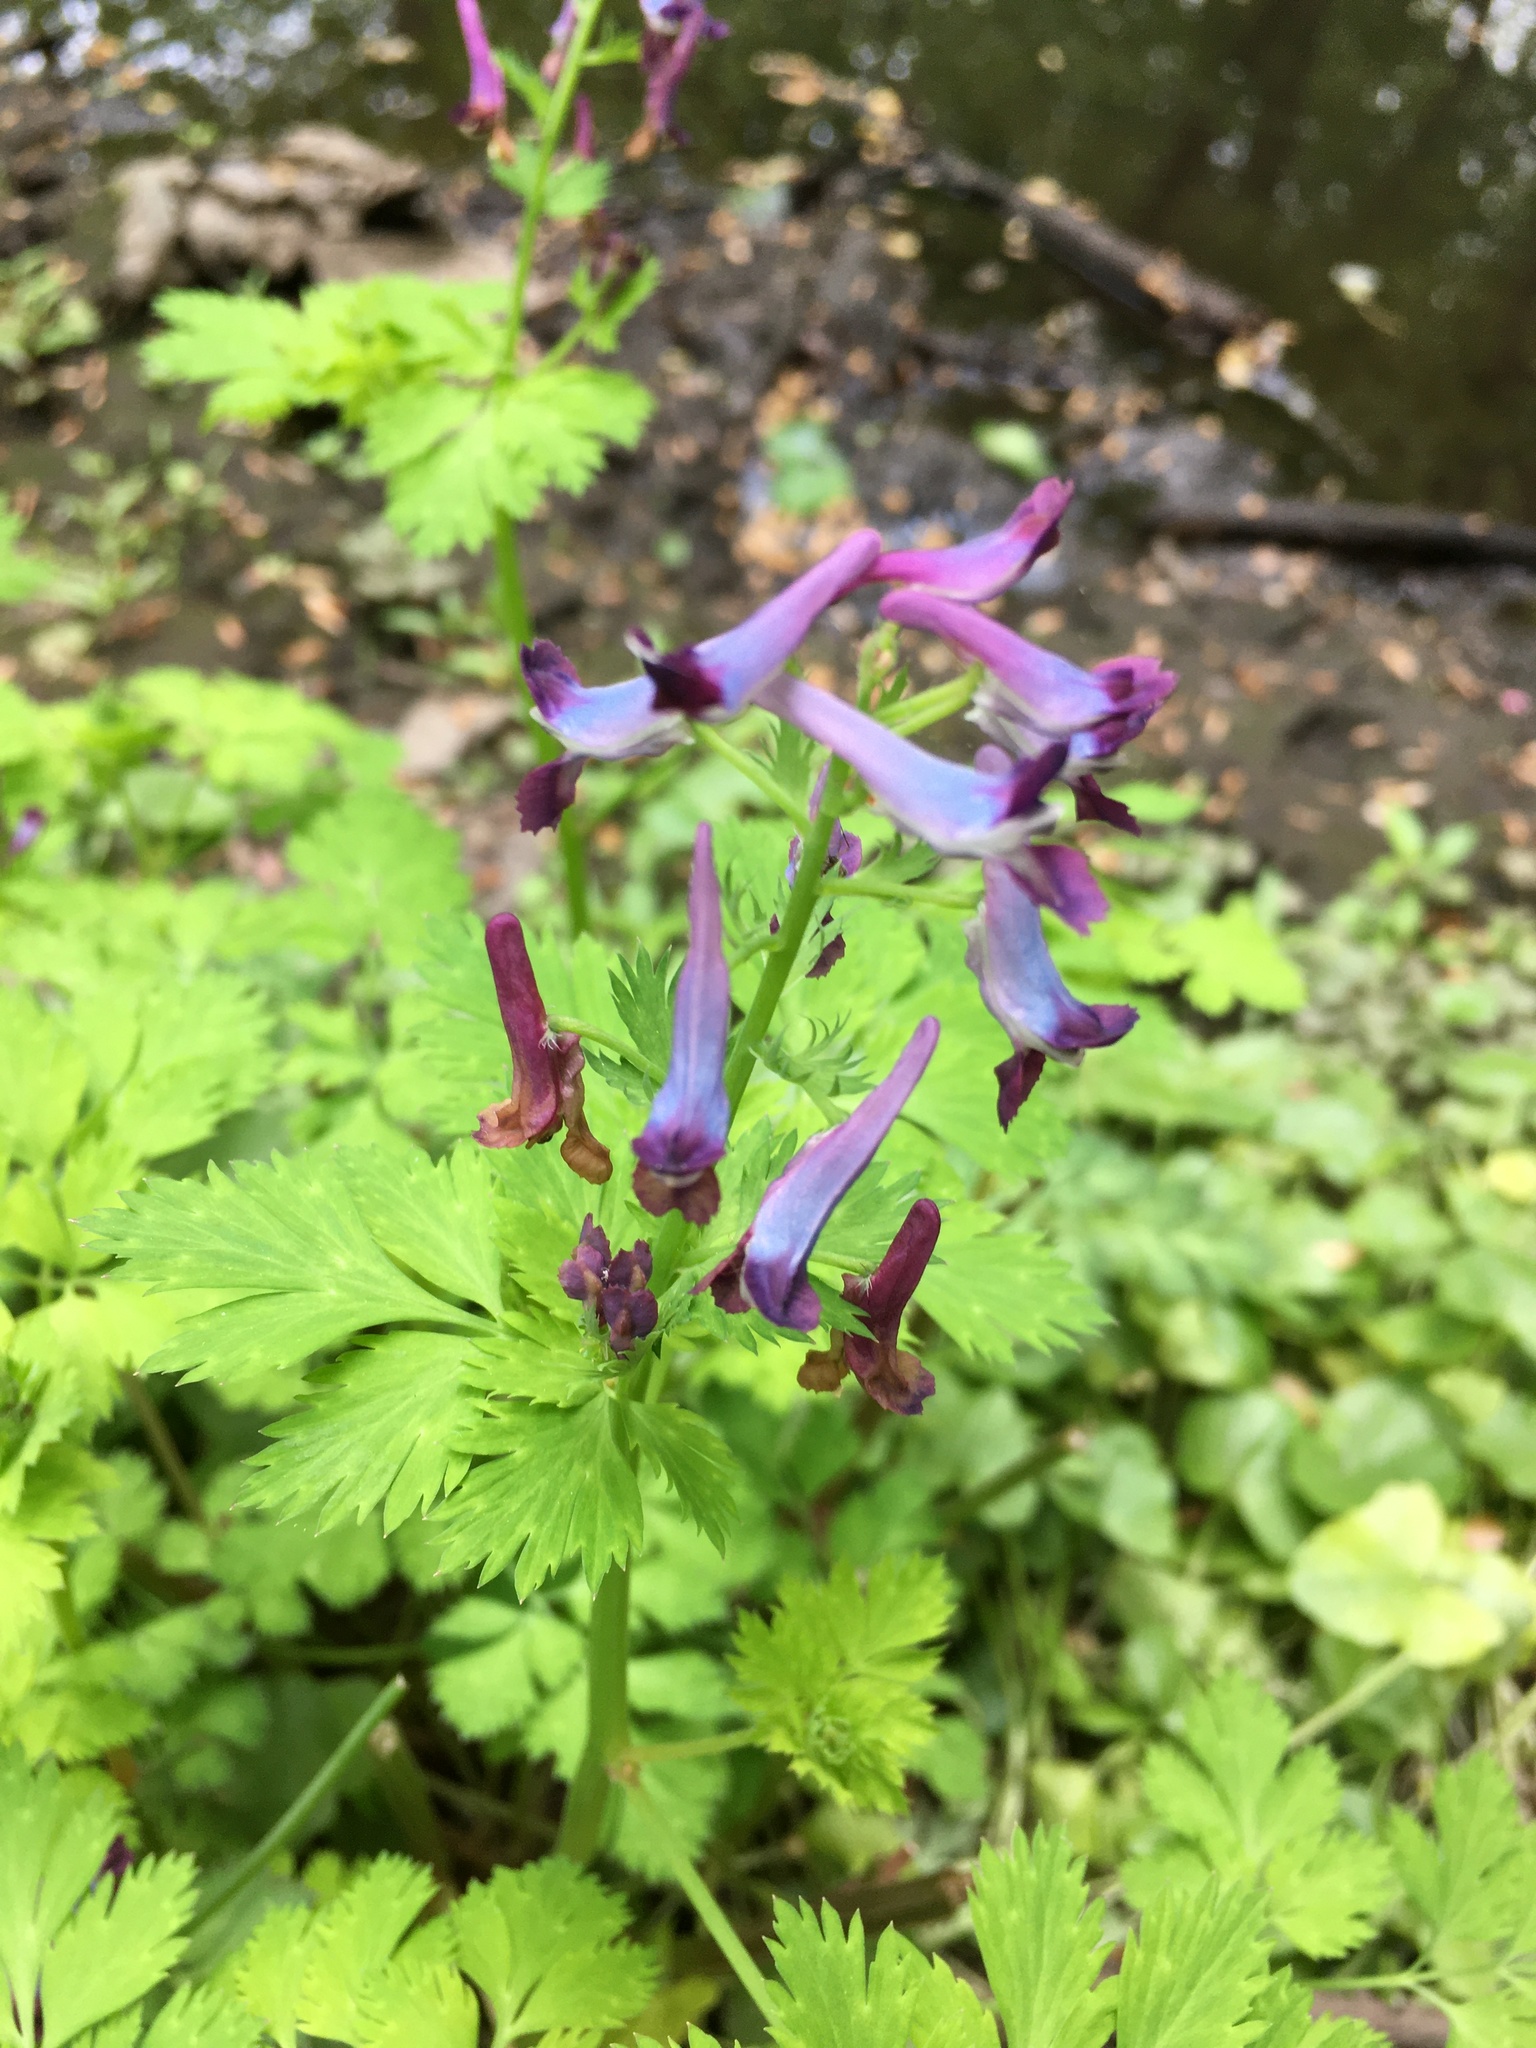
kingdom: Plantae
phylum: Tracheophyta
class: Magnoliopsida
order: Ranunculales
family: Papaveraceae
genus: Corydalis
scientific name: Corydalis incisa
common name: Incised fumewort
